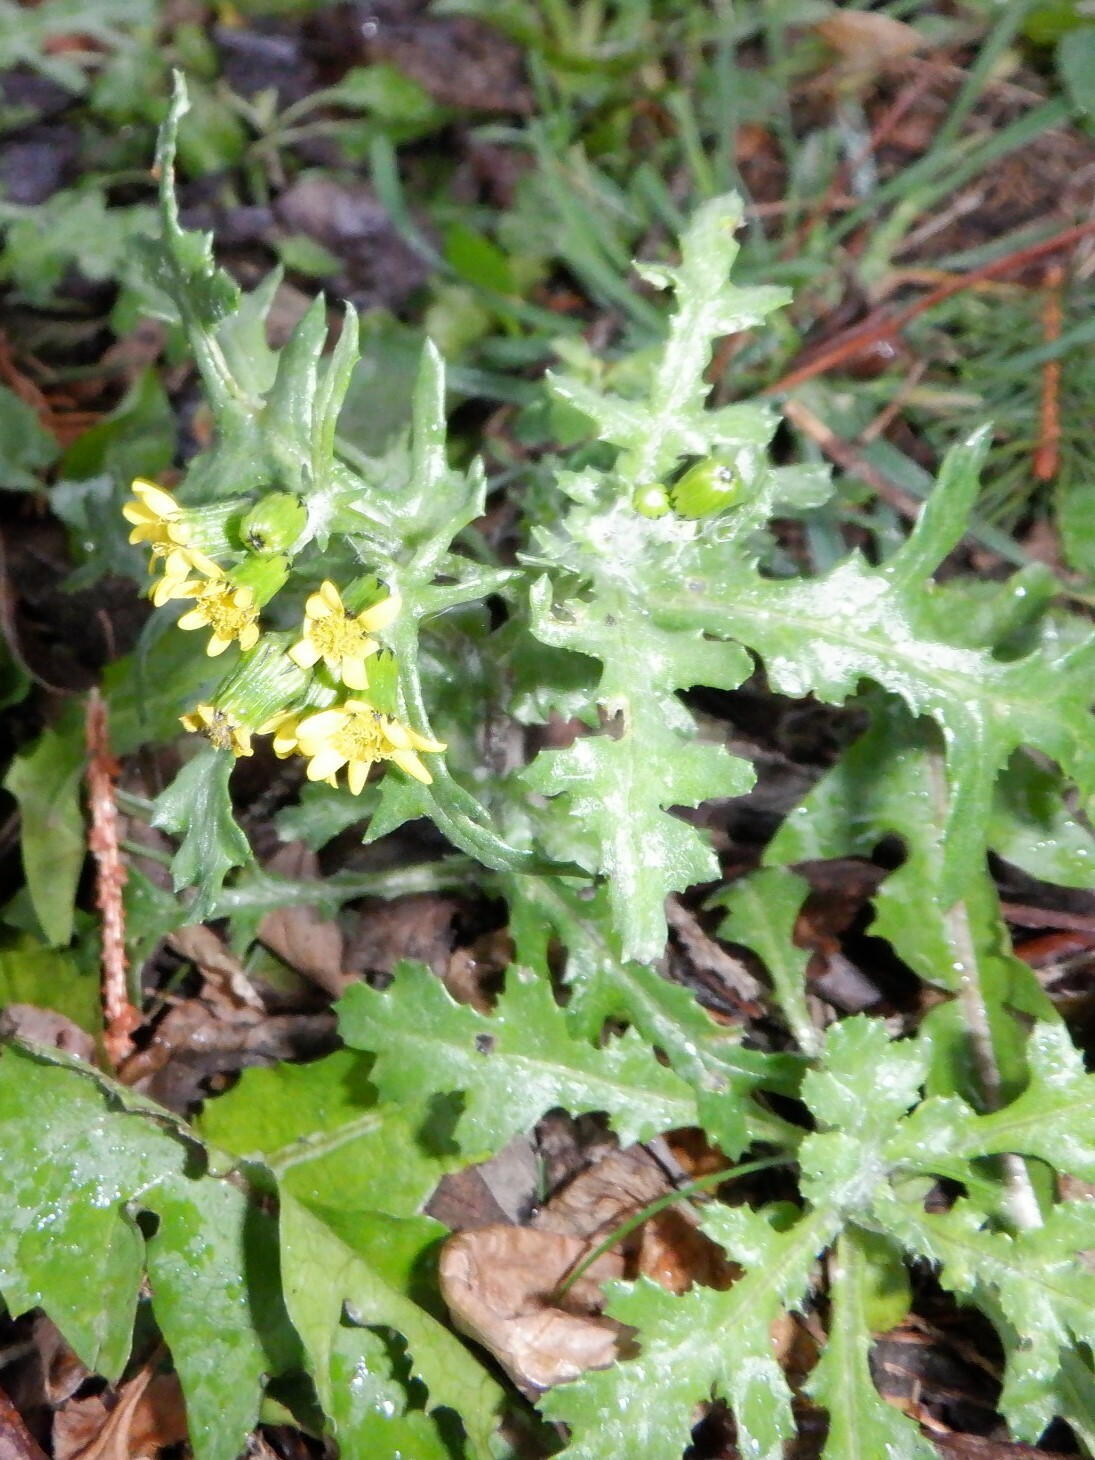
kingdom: Plantae
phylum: Tracheophyta
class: Magnoliopsida
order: Asterales
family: Asteraceae
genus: Senecio
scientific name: Senecio vulgaris
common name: Old-man-in-the-spring
